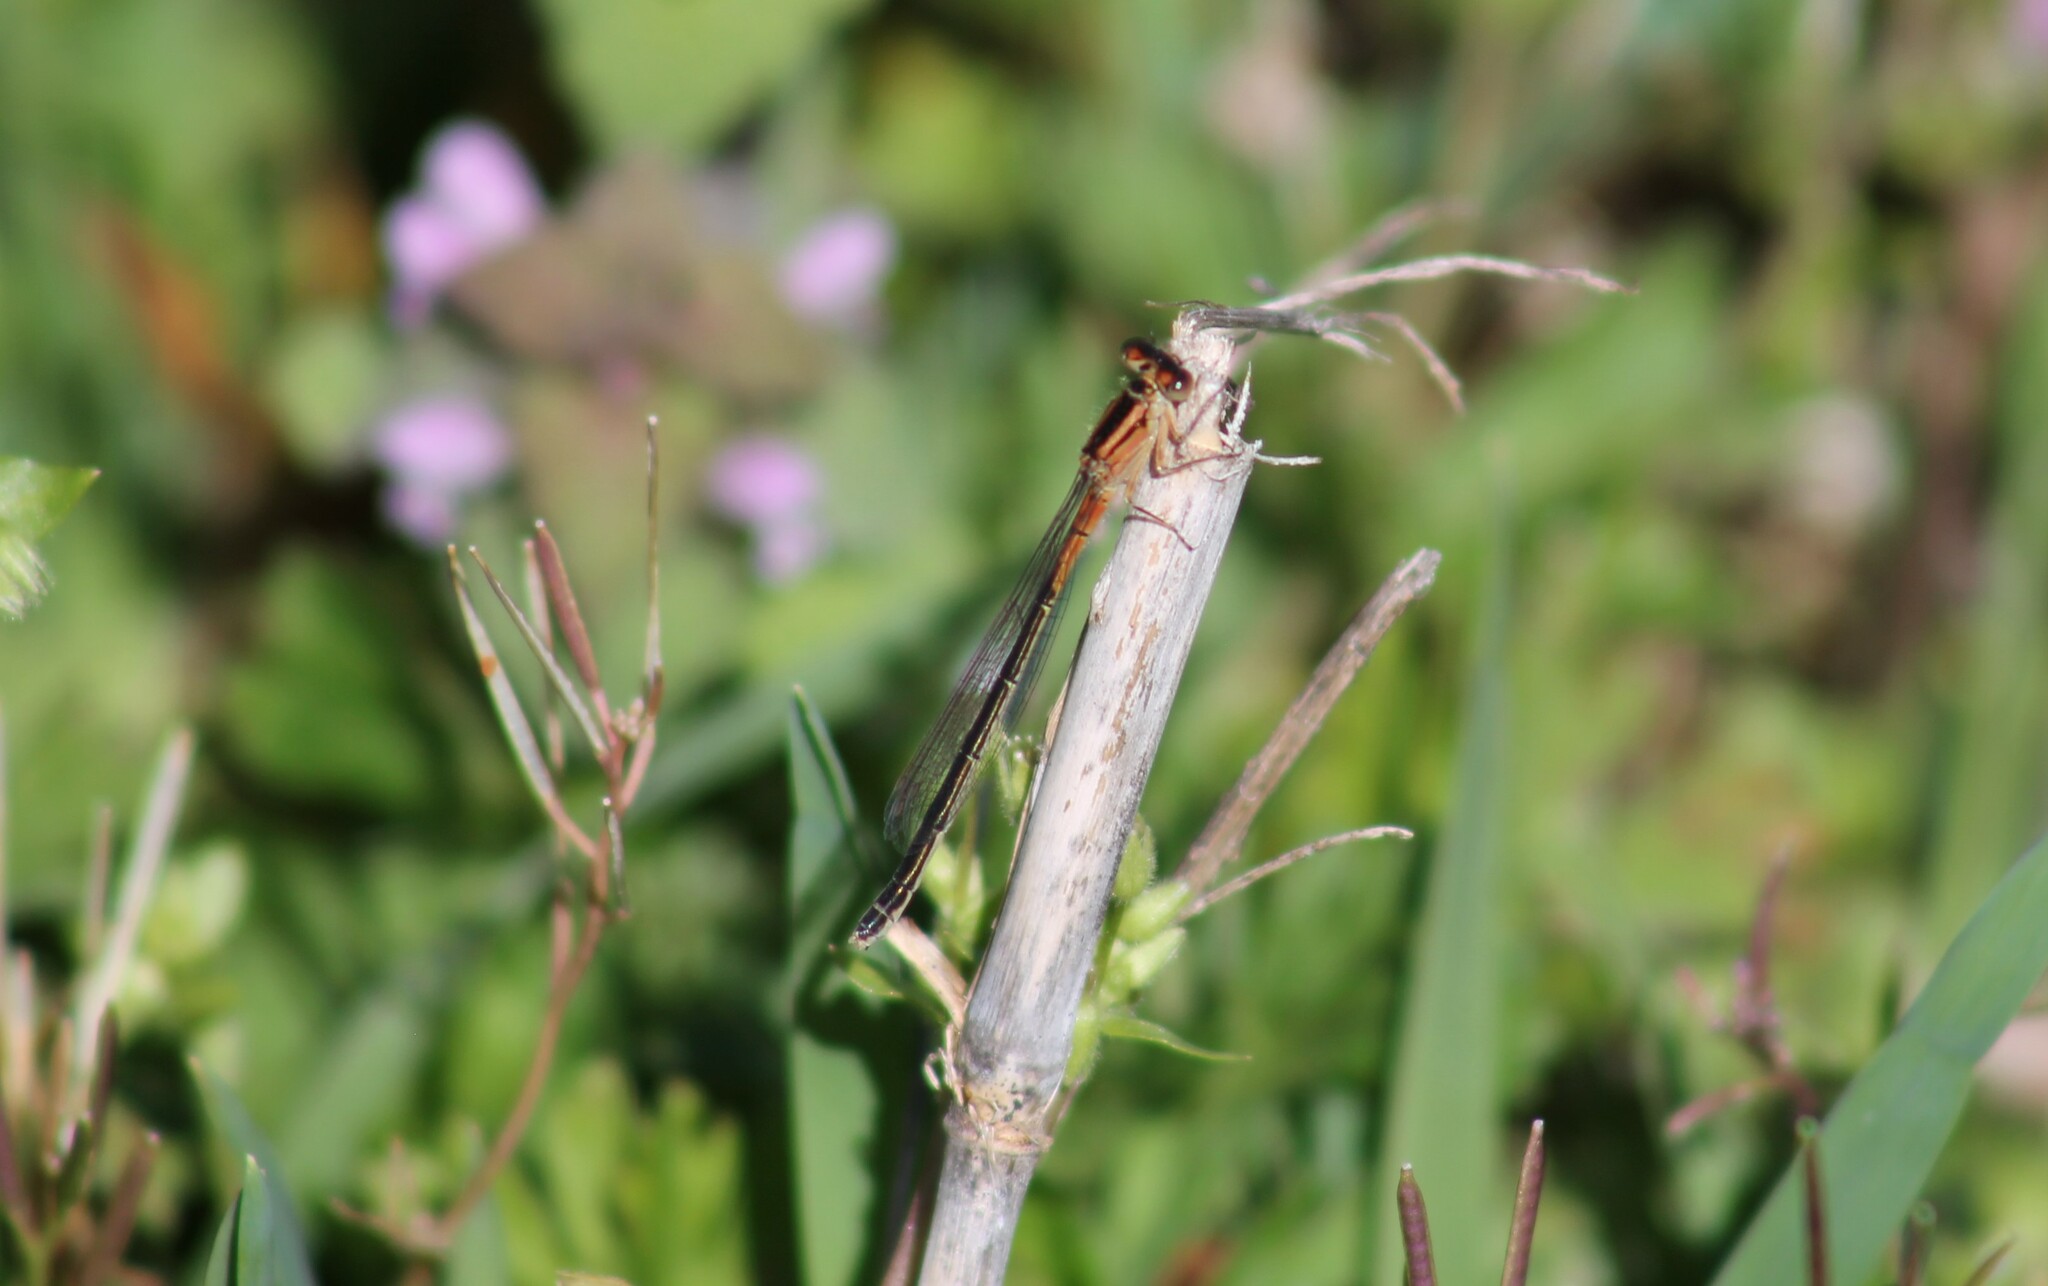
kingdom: Animalia
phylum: Arthropoda
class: Insecta
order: Odonata
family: Coenagrionidae
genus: Ischnura
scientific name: Ischnura verticalis
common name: Eastern forktail
